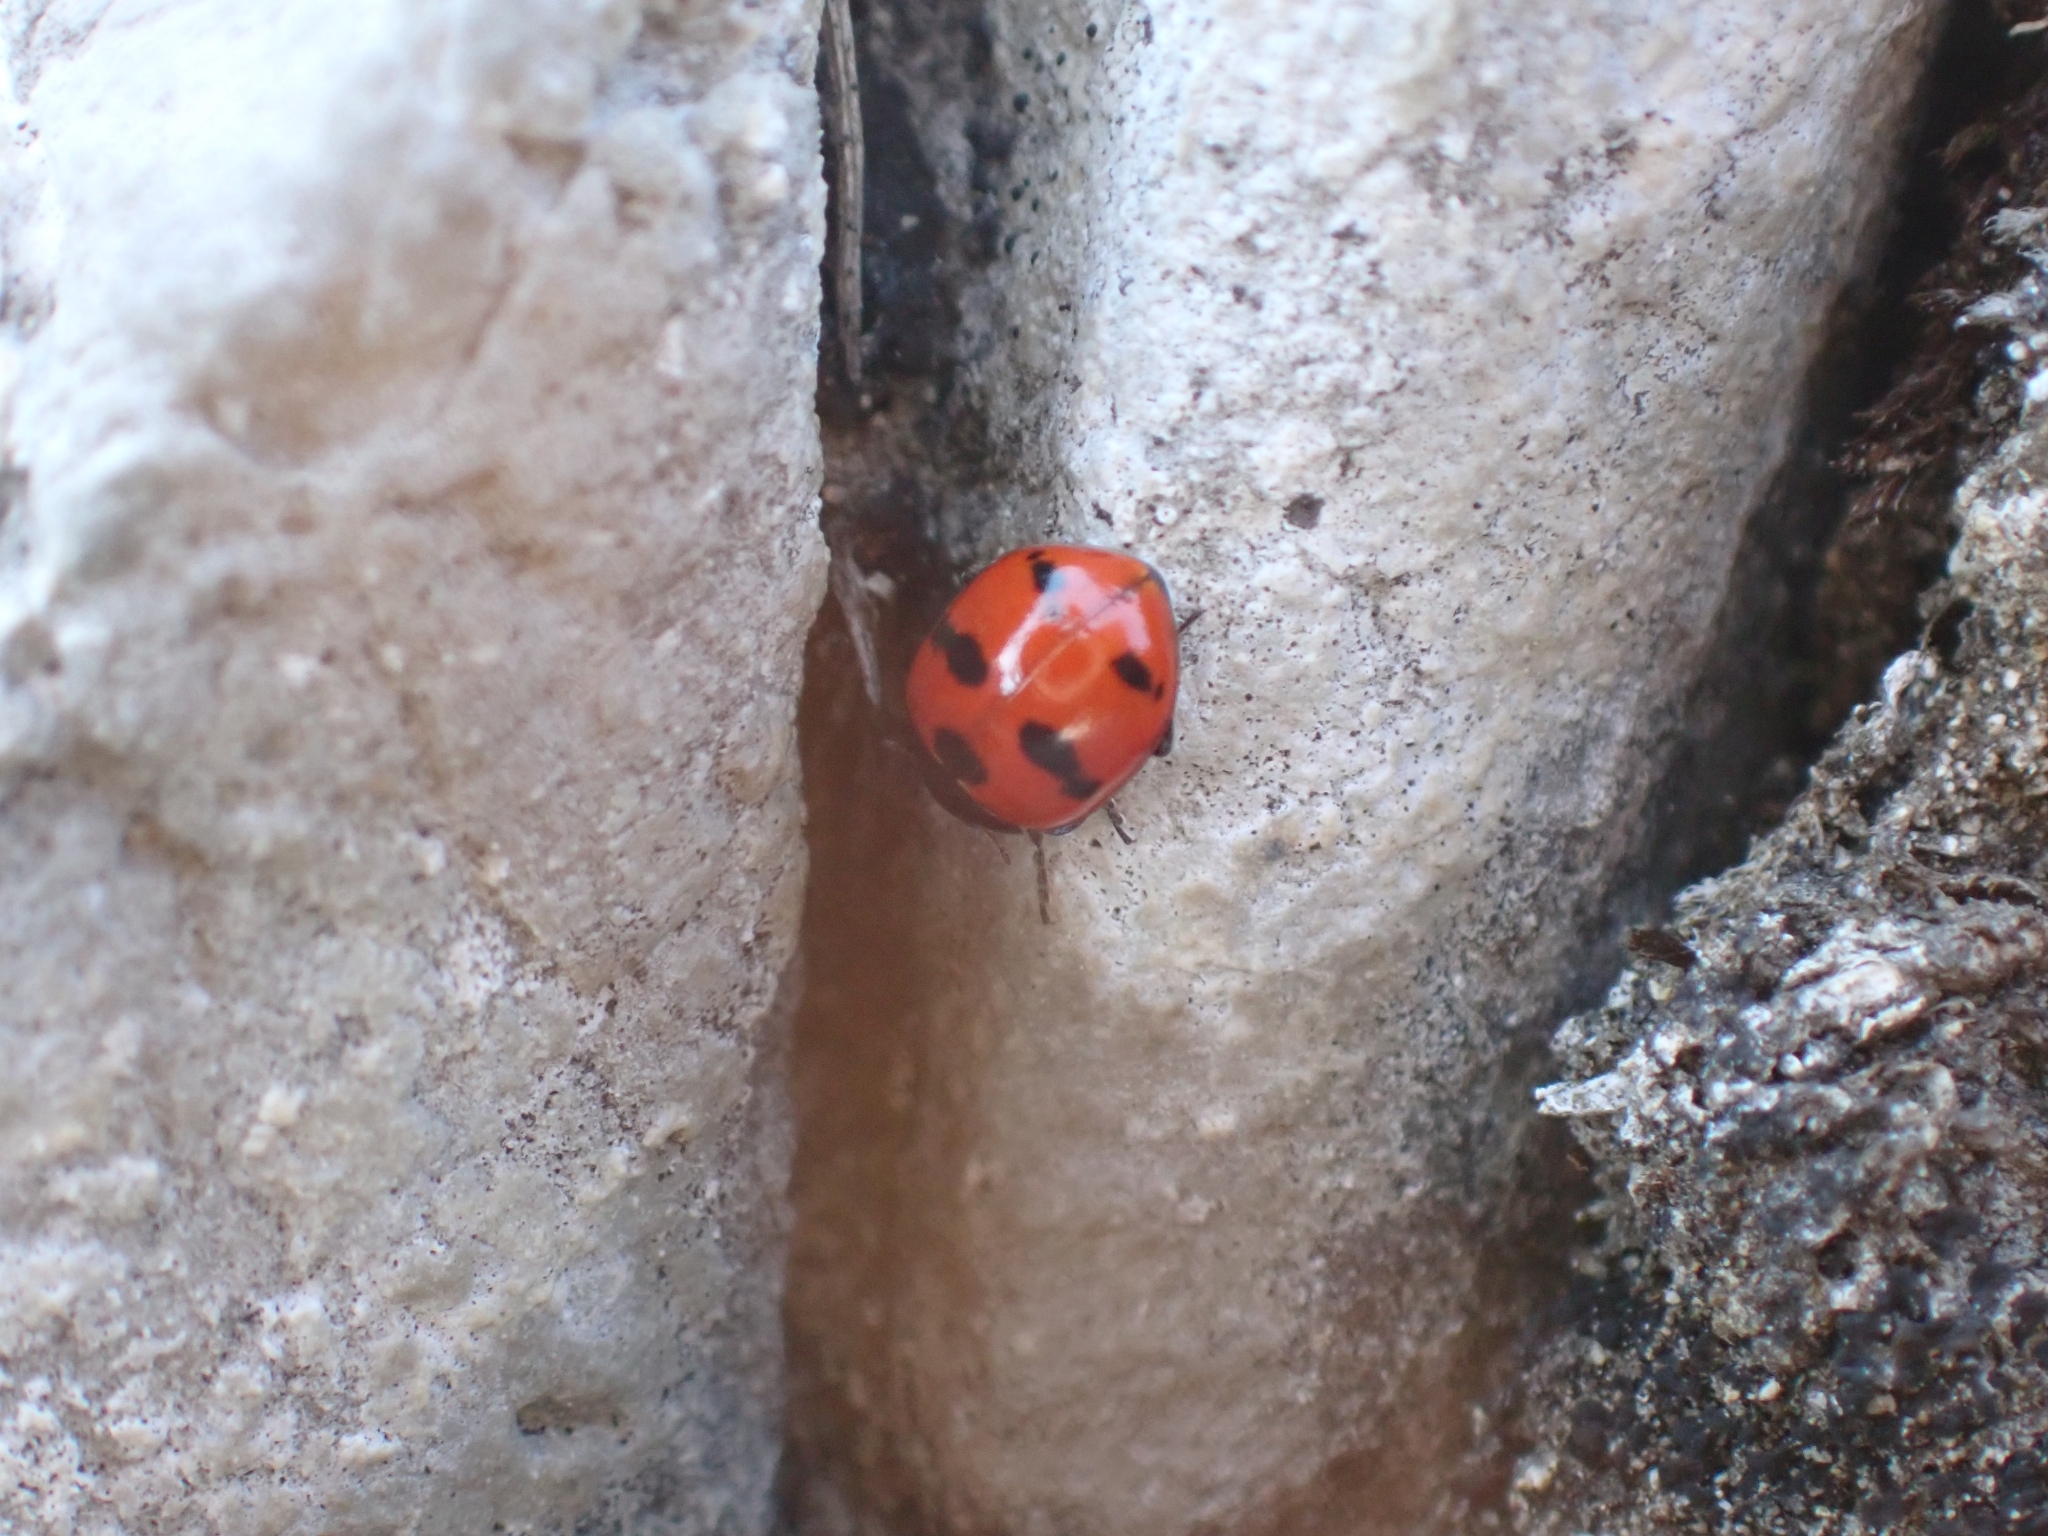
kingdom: Animalia
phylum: Arthropoda
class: Insecta
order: Coleoptera
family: Coccinellidae
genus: Coccinella
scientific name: Coccinella monticola
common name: Mountain lady beetle
